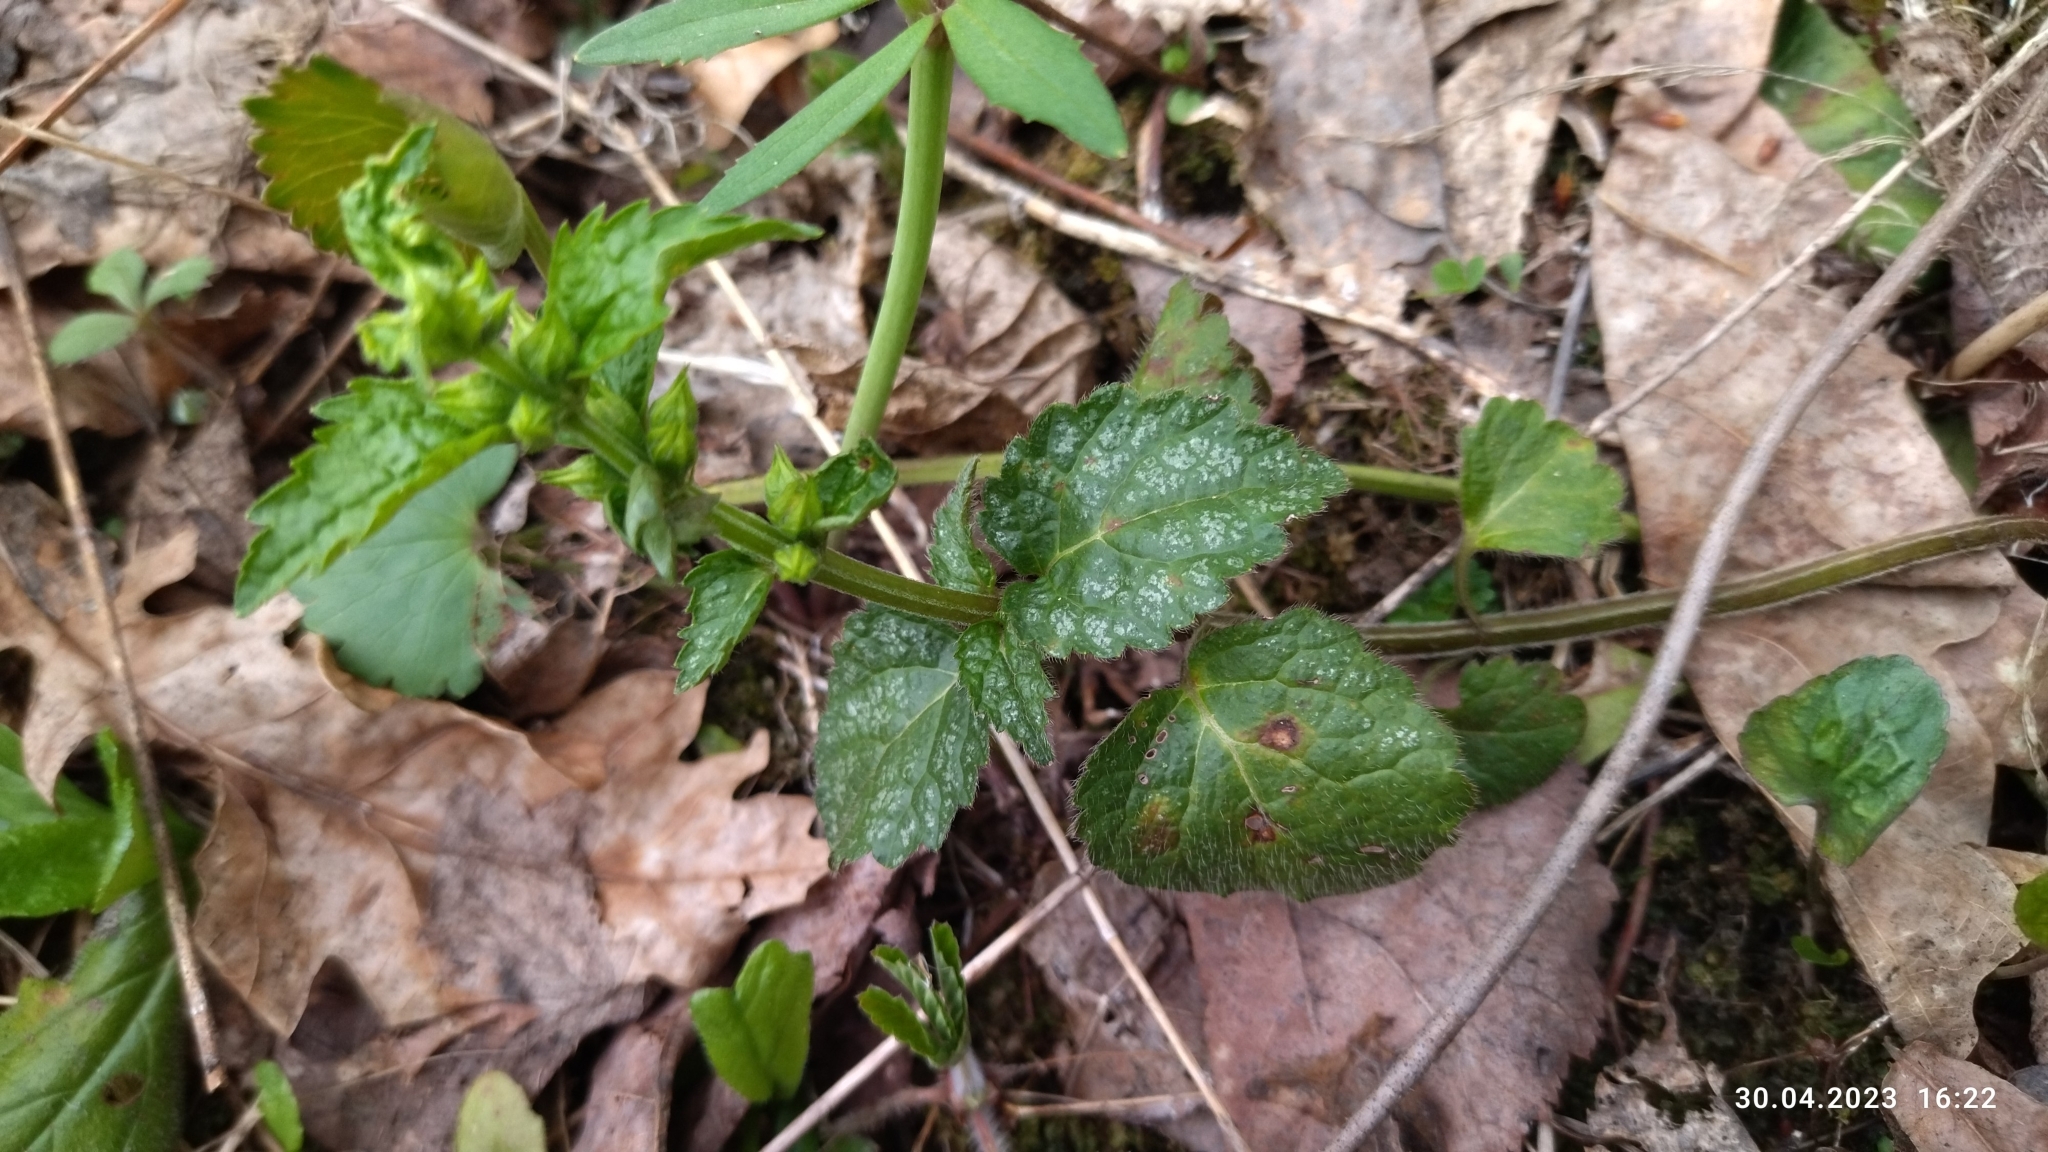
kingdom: Plantae
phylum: Tracheophyta
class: Magnoliopsida
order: Lamiales
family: Lamiaceae
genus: Lamium
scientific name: Lamium galeobdolon
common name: Yellow archangel
